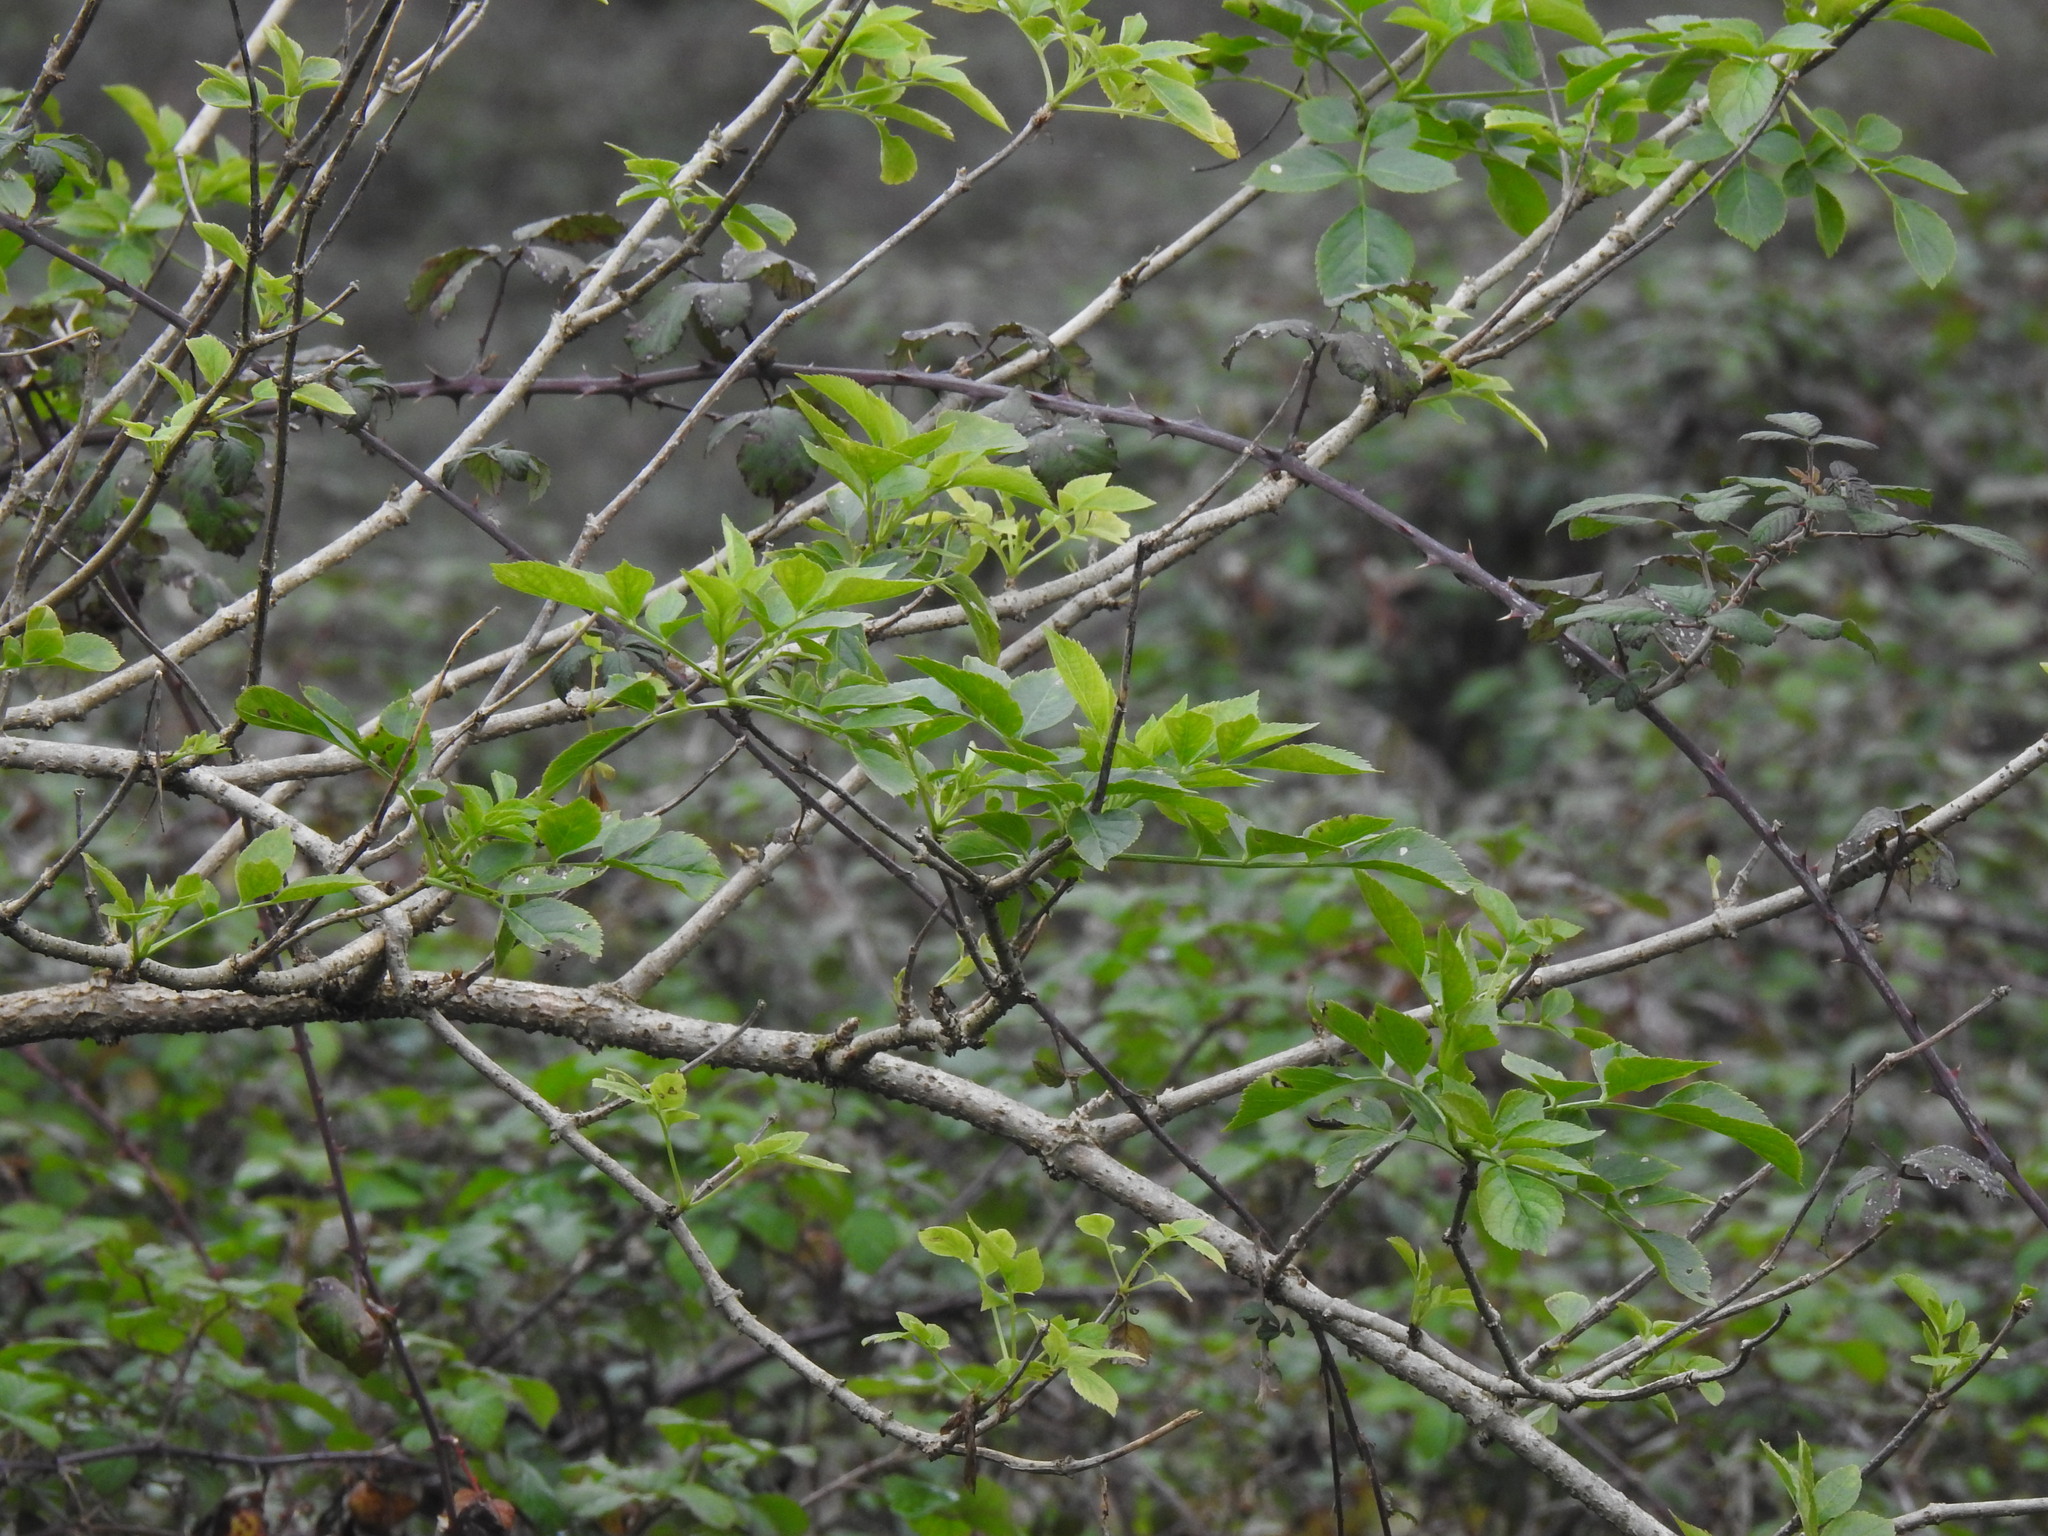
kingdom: Plantae
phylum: Tracheophyta
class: Magnoliopsida
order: Dipsacales
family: Viburnaceae
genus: Sambucus
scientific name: Sambucus nigra
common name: Elder
